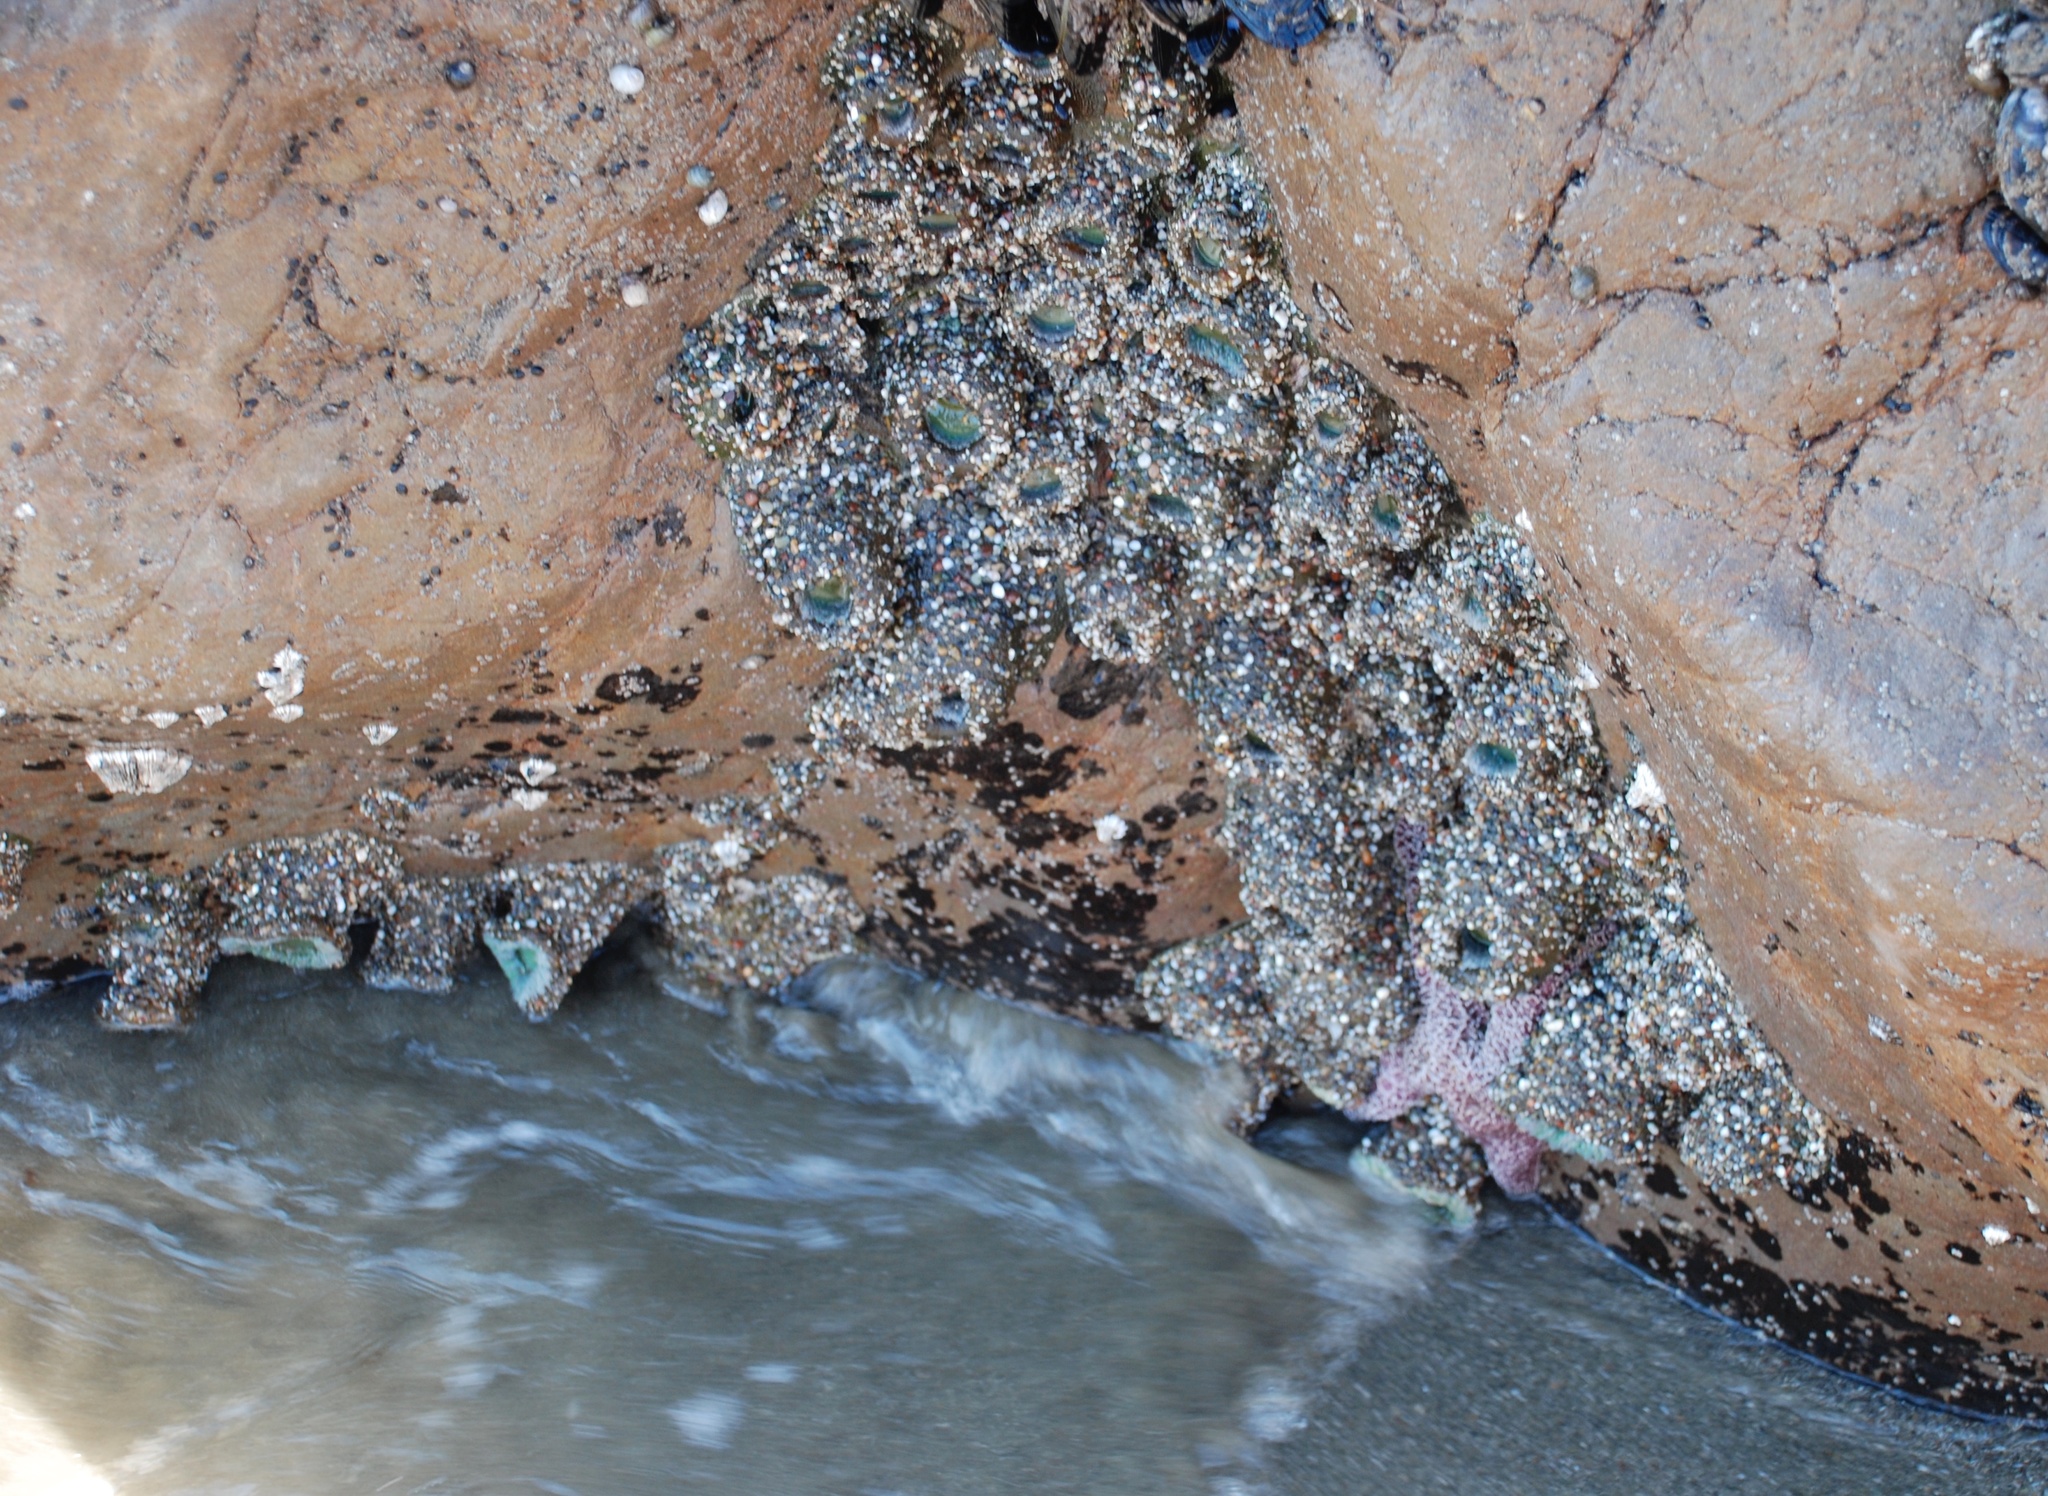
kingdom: Animalia
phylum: Cnidaria
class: Anthozoa
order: Actiniaria
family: Actiniidae
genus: Anthopleura
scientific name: Anthopleura xanthogrammica
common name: Giant green anemone
